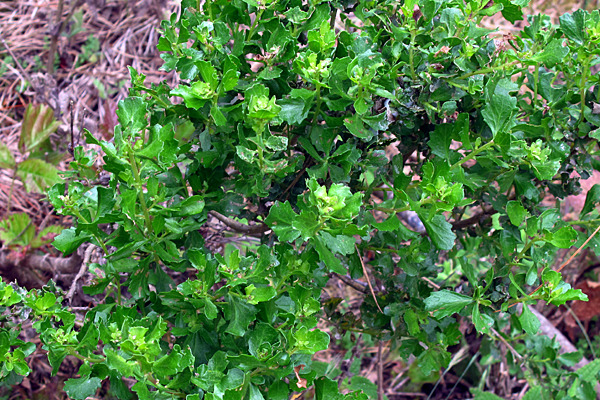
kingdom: Plantae
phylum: Tracheophyta
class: Magnoliopsida
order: Asterales
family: Asteraceae
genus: Baccharis
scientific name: Baccharis pilularis
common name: Coyotebrush
